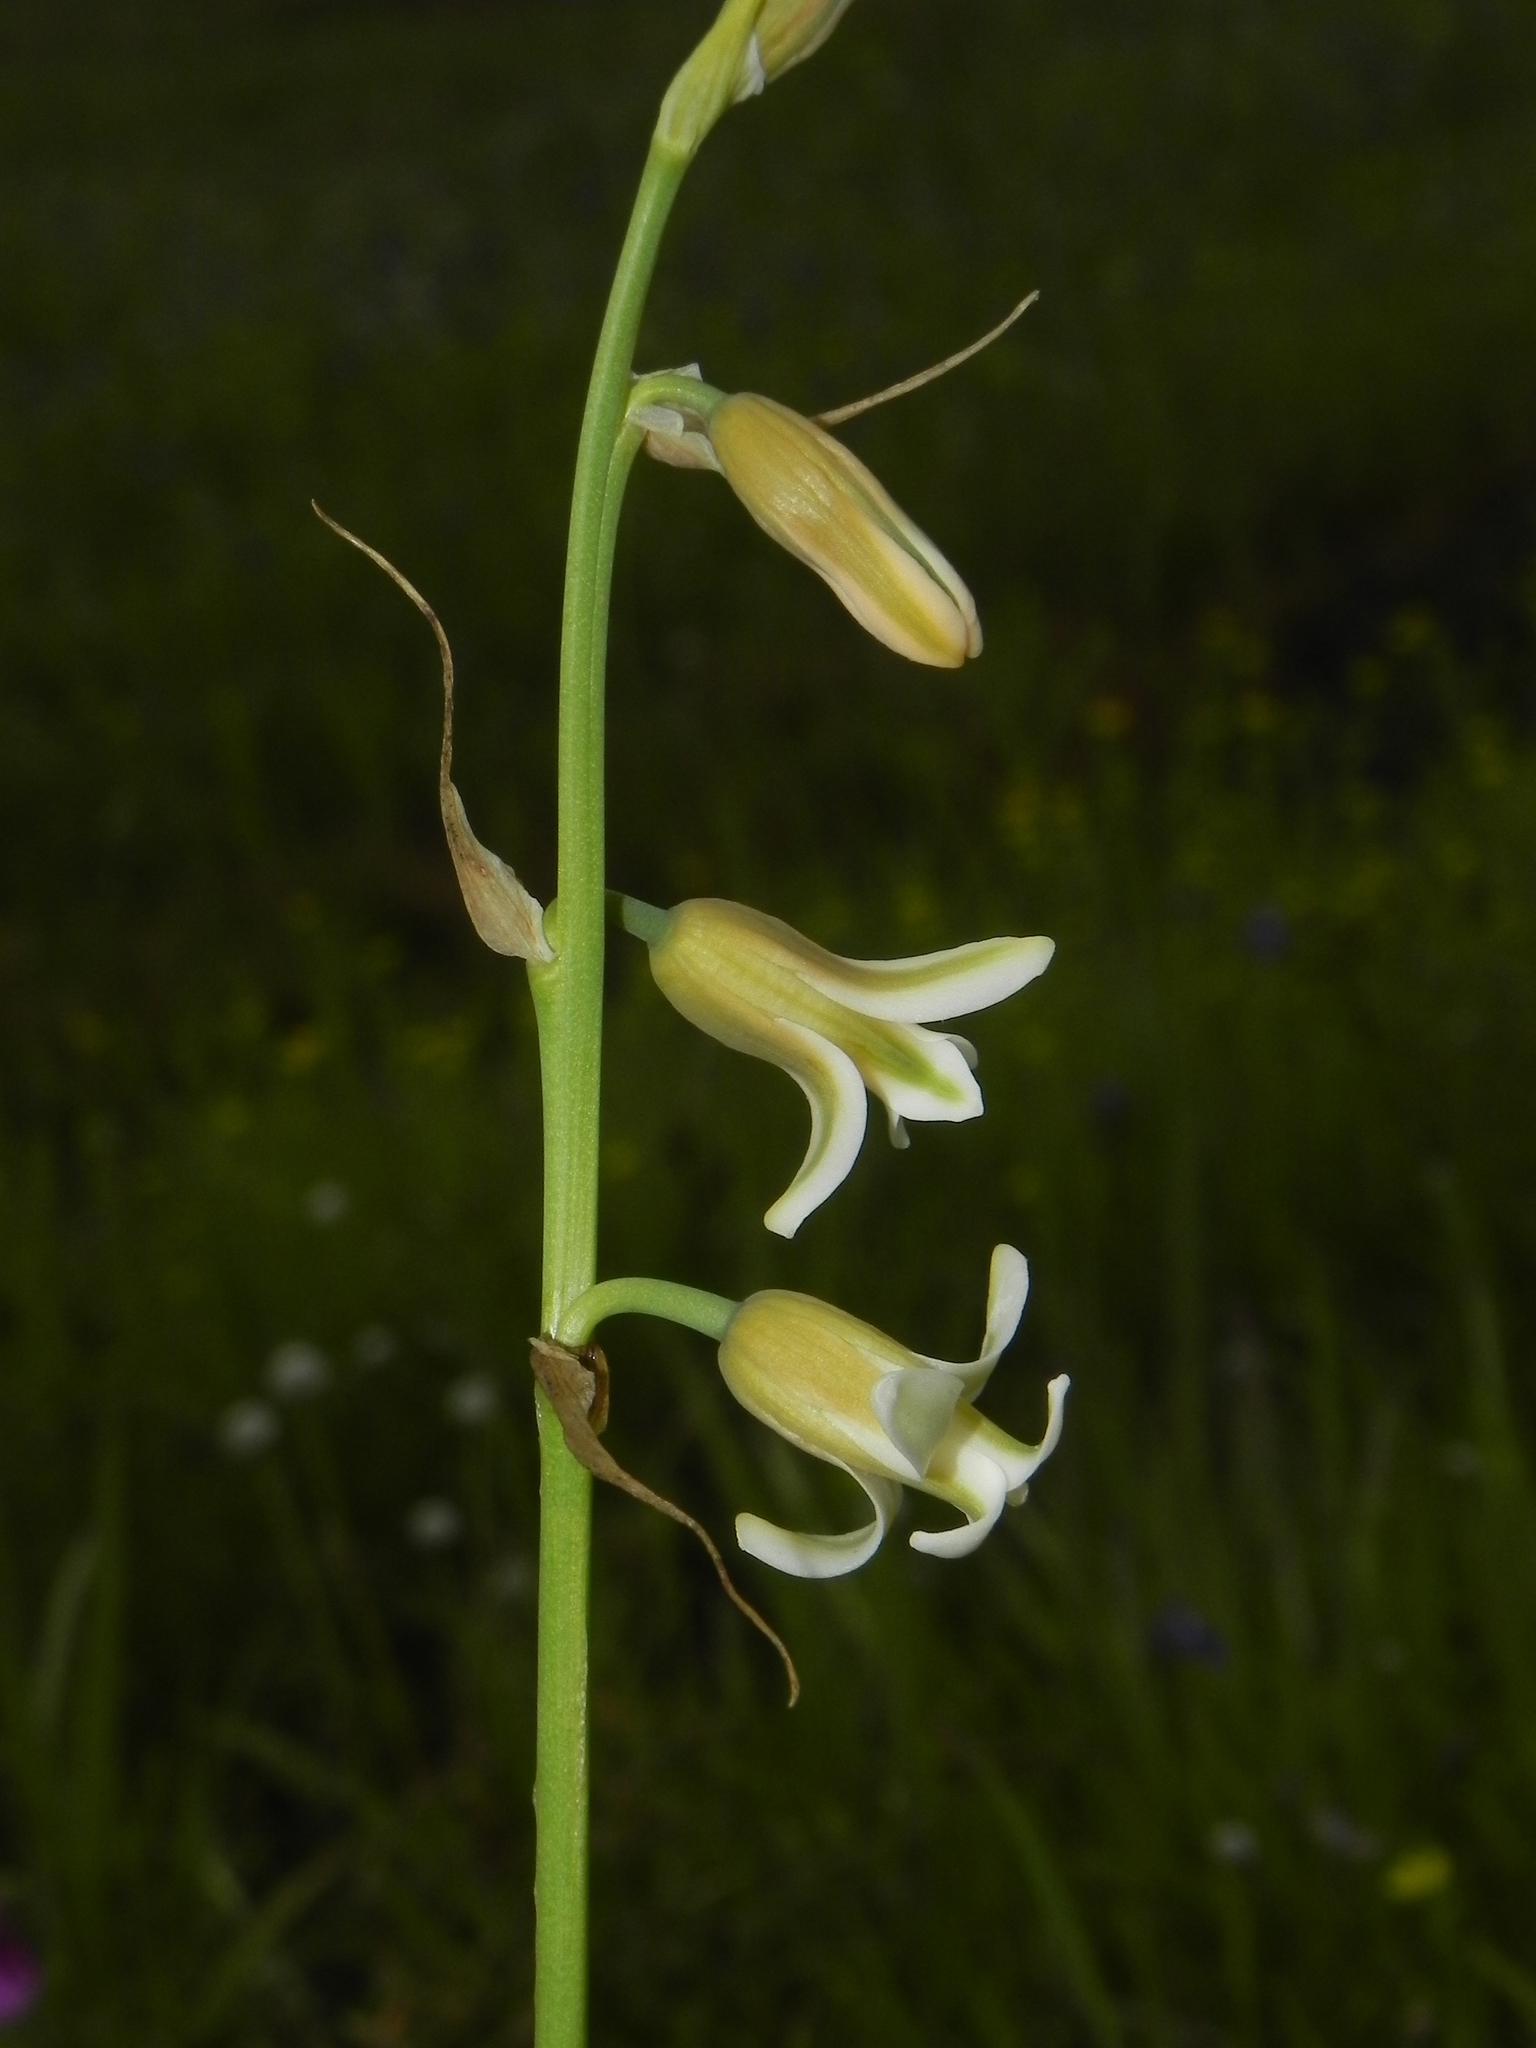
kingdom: Plantae
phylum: Tracheophyta
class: Liliopsida
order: Asparagales
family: Asparagaceae
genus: Dipcadi
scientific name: Dipcadi ursulae
